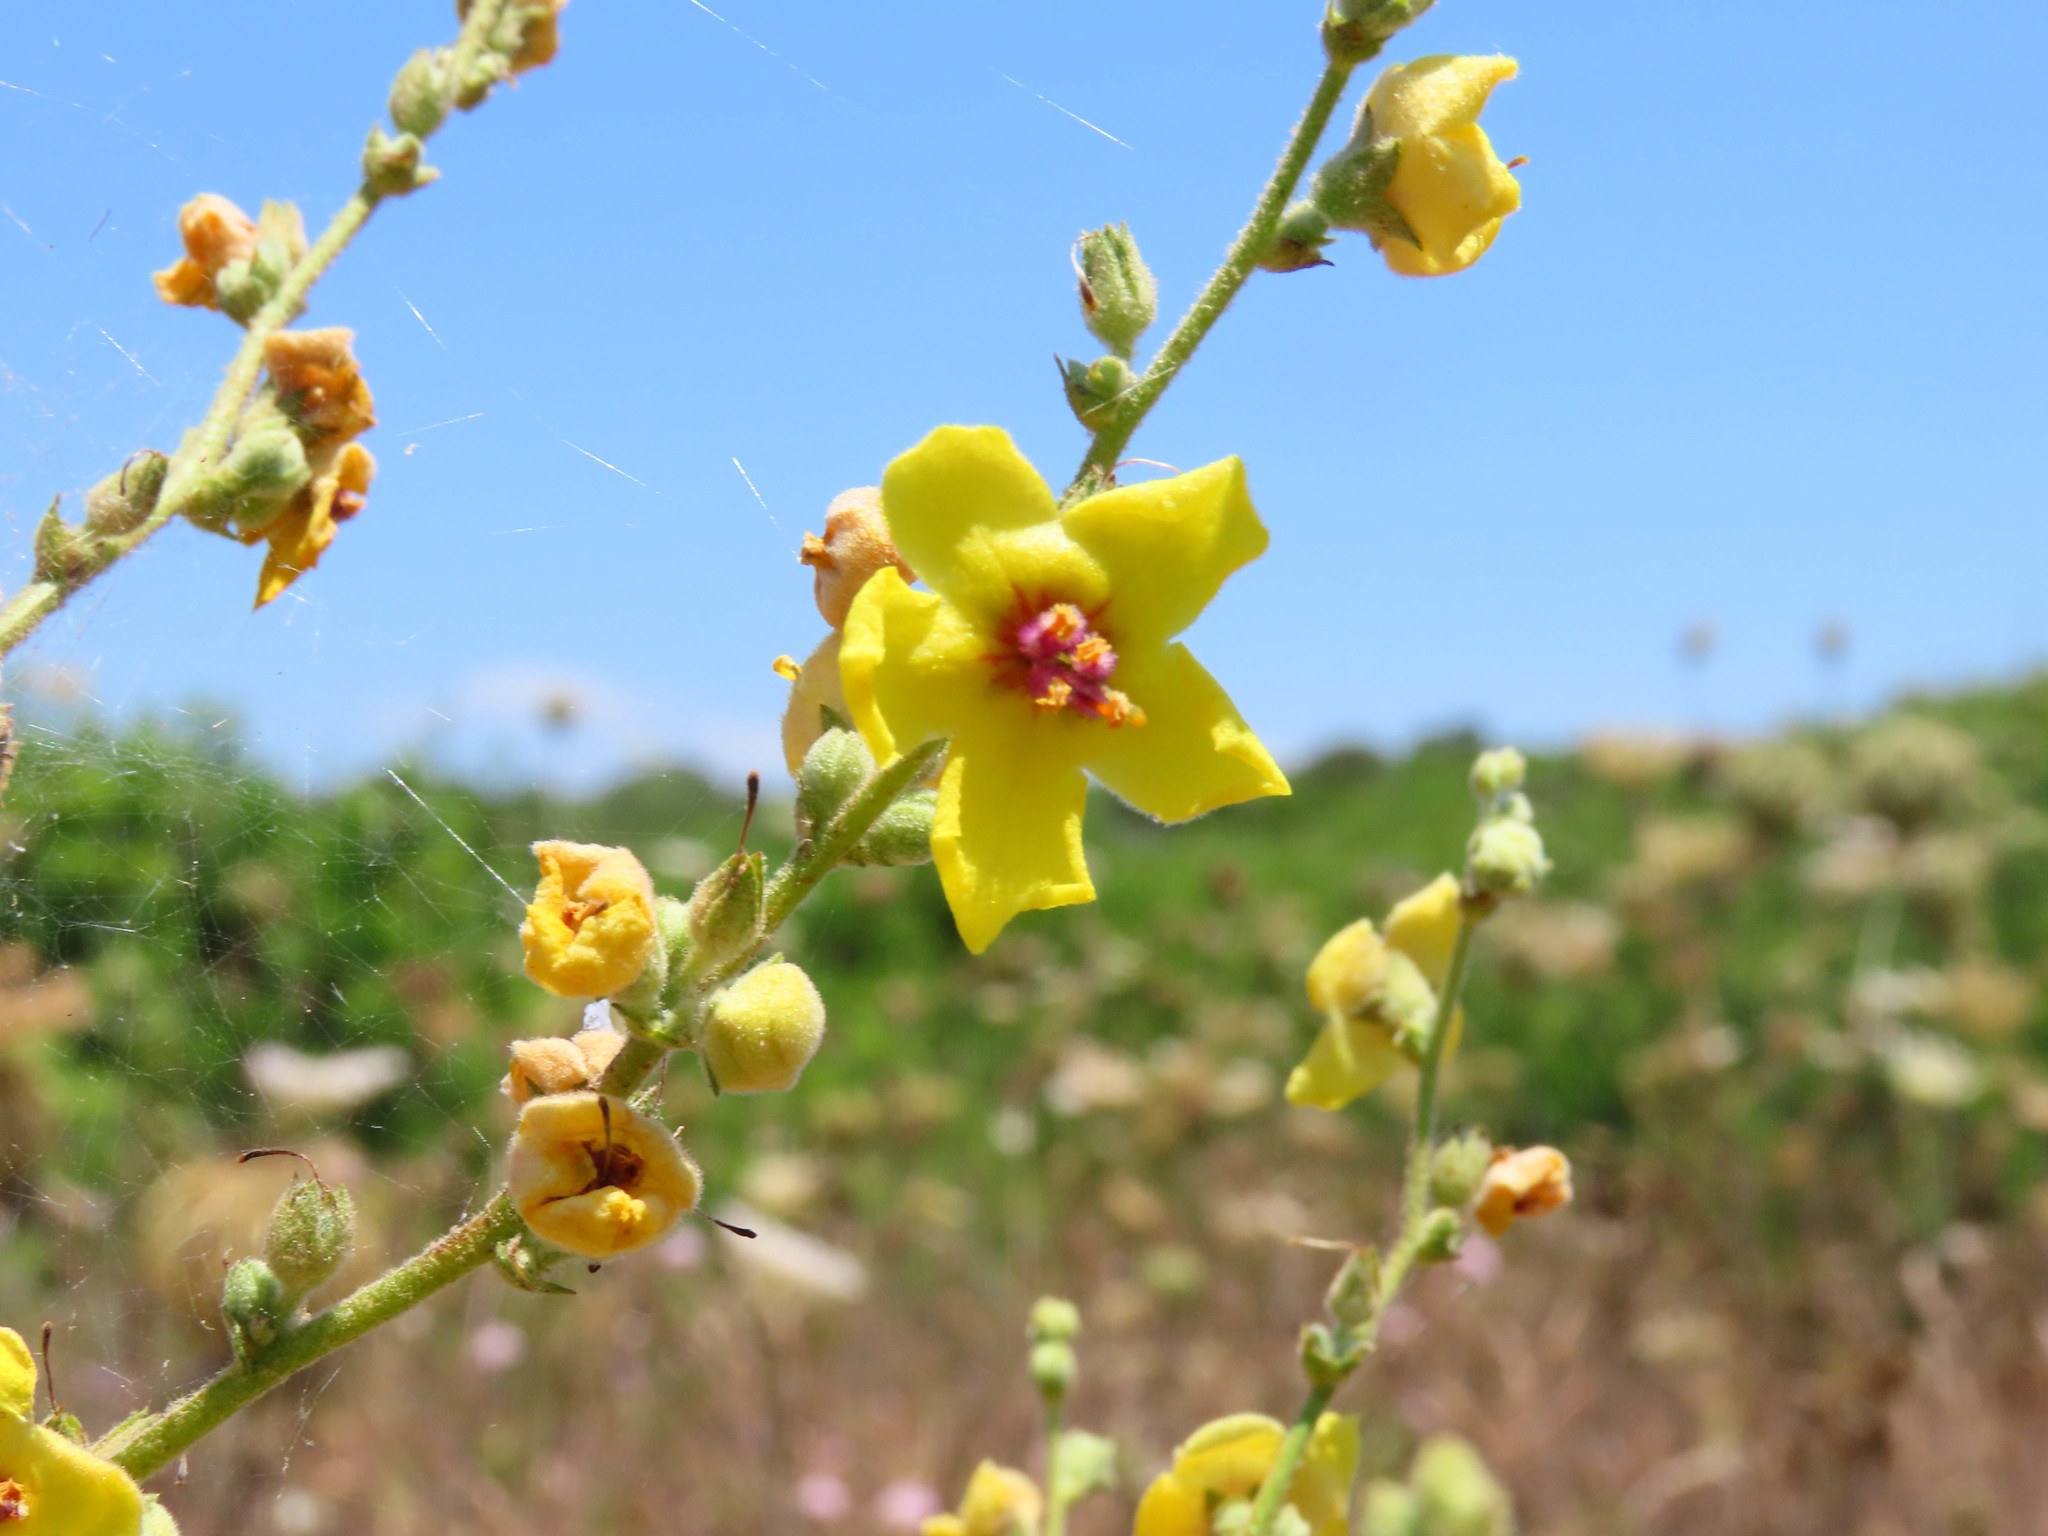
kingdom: Plantae
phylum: Tracheophyta
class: Magnoliopsida
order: Lamiales
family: Scrophulariaceae
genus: Verbascum
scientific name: Verbascum sinuatum
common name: Wavyleaf mullein
